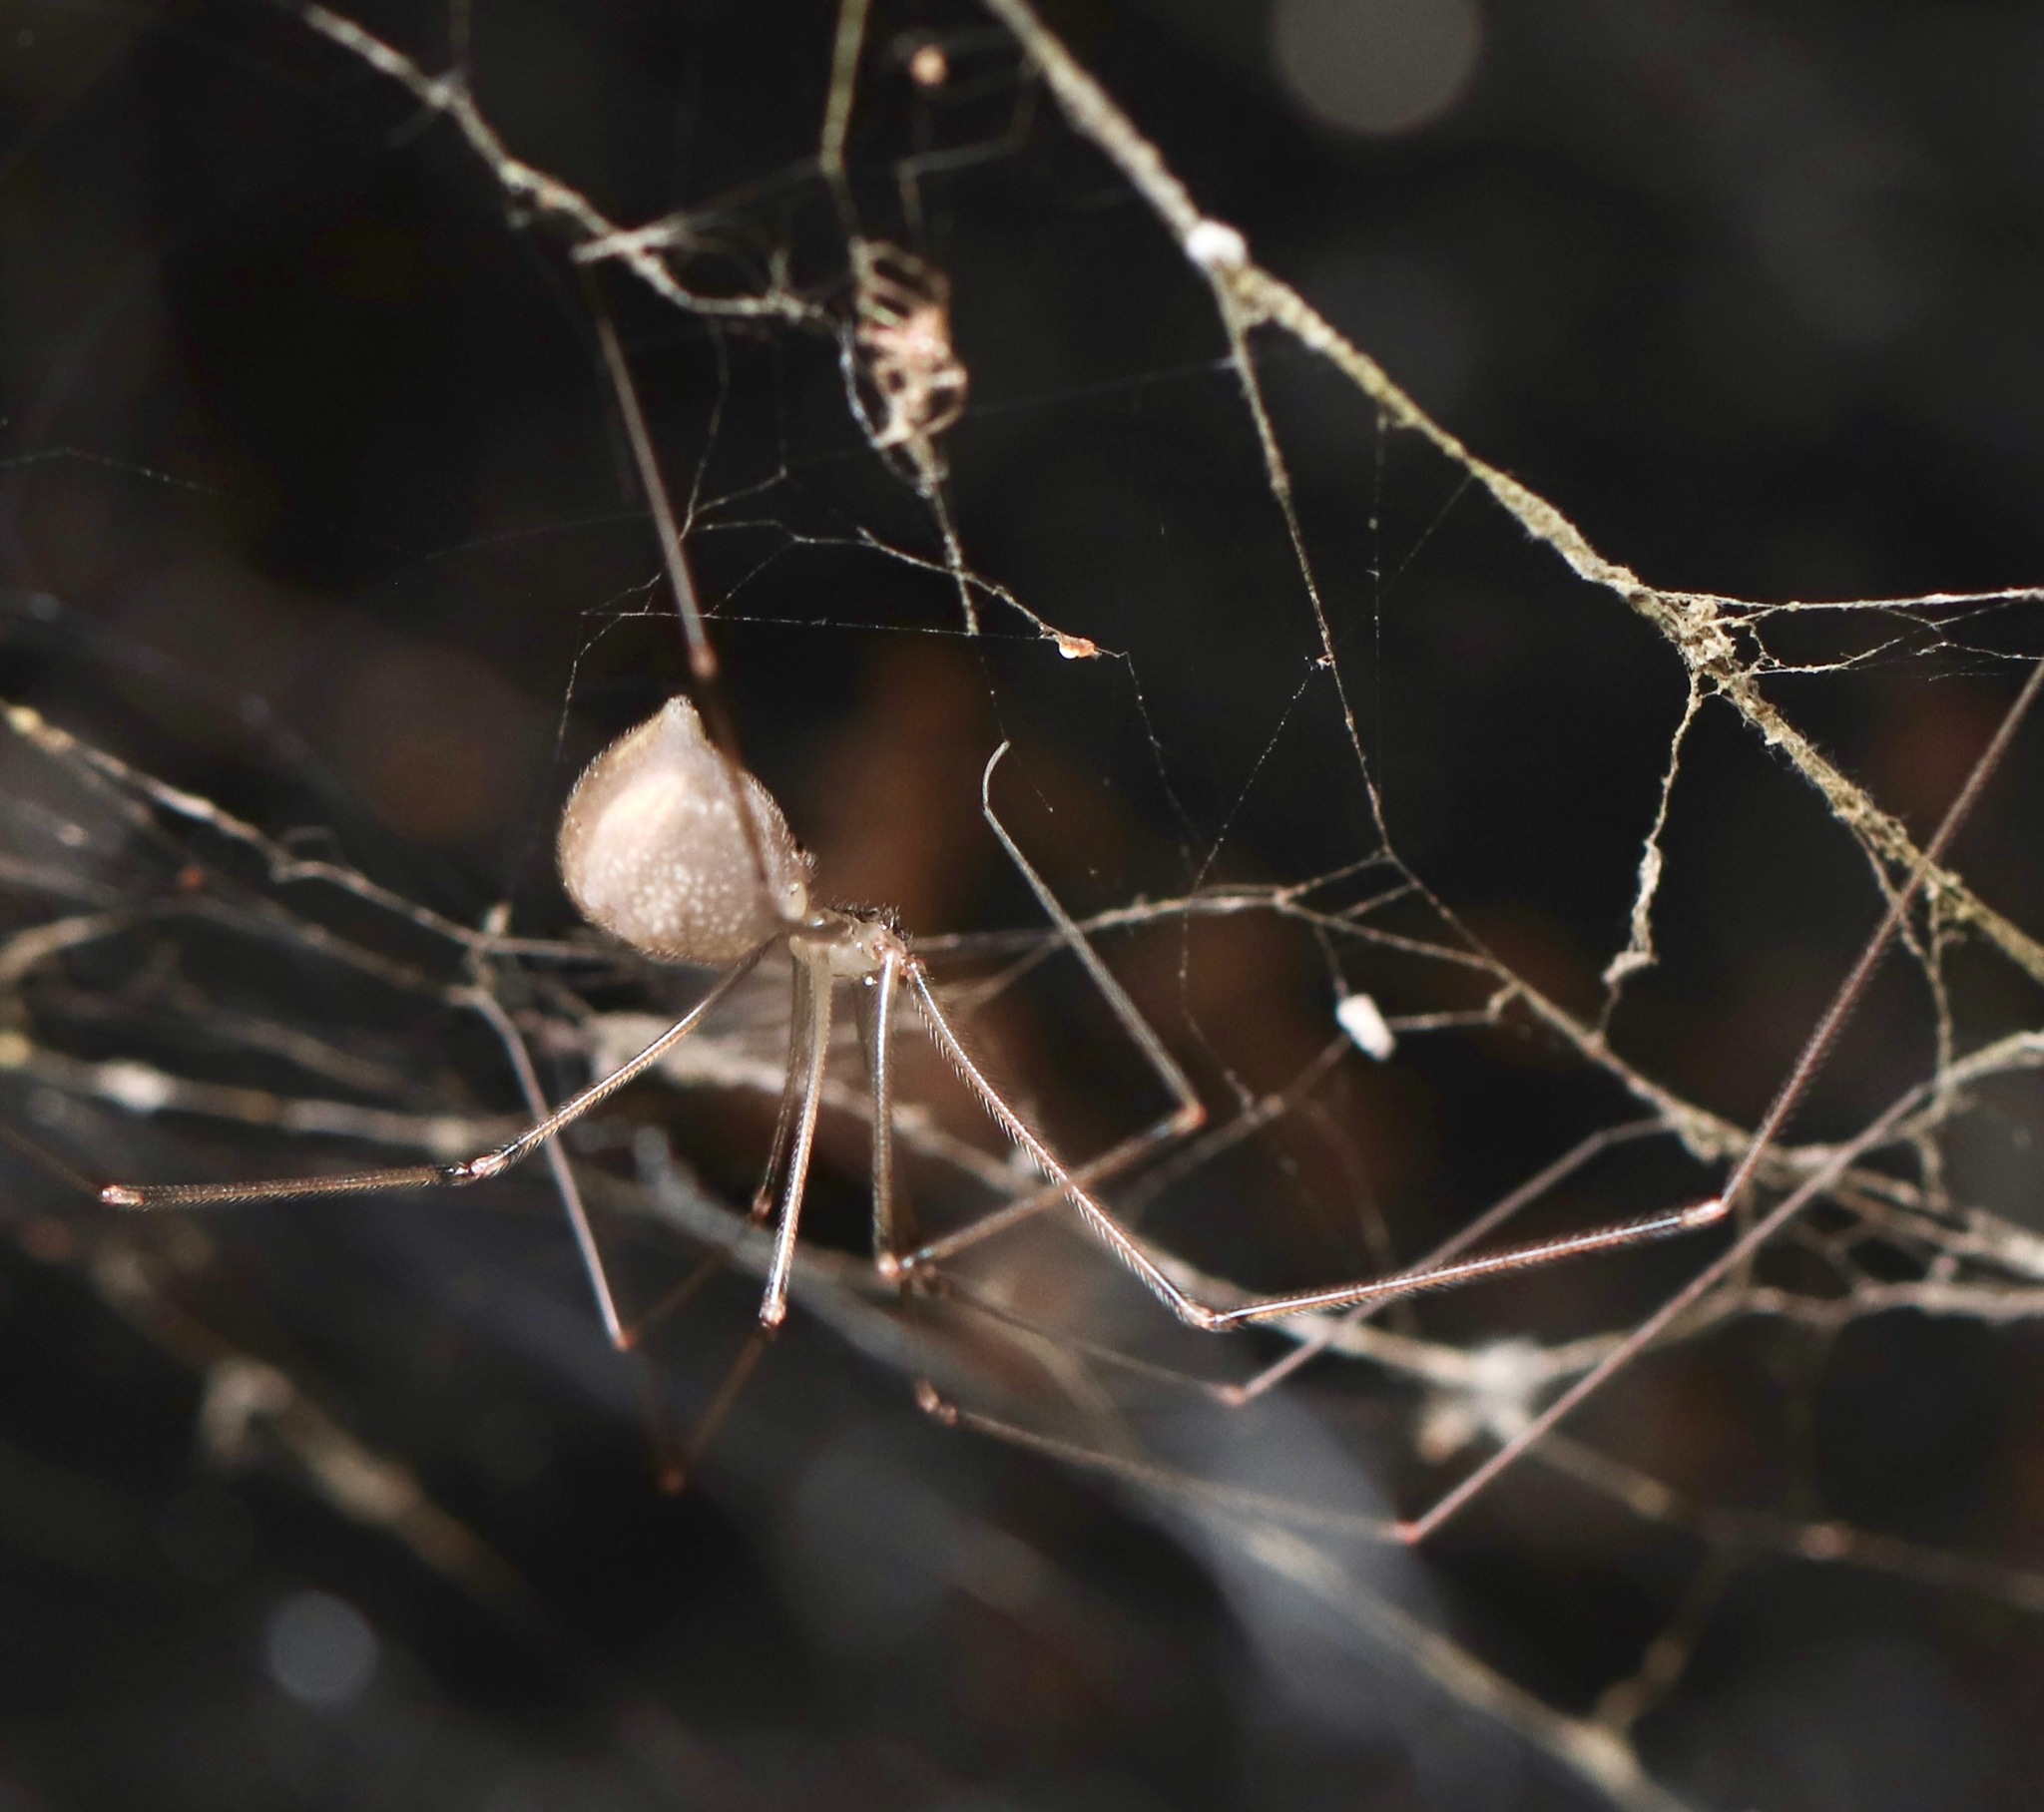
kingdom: Animalia
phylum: Arthropoda
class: Arachnida
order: Araneae
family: Pholcidae
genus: Pholcus
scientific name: Pholcus manueli
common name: Cellar spider
